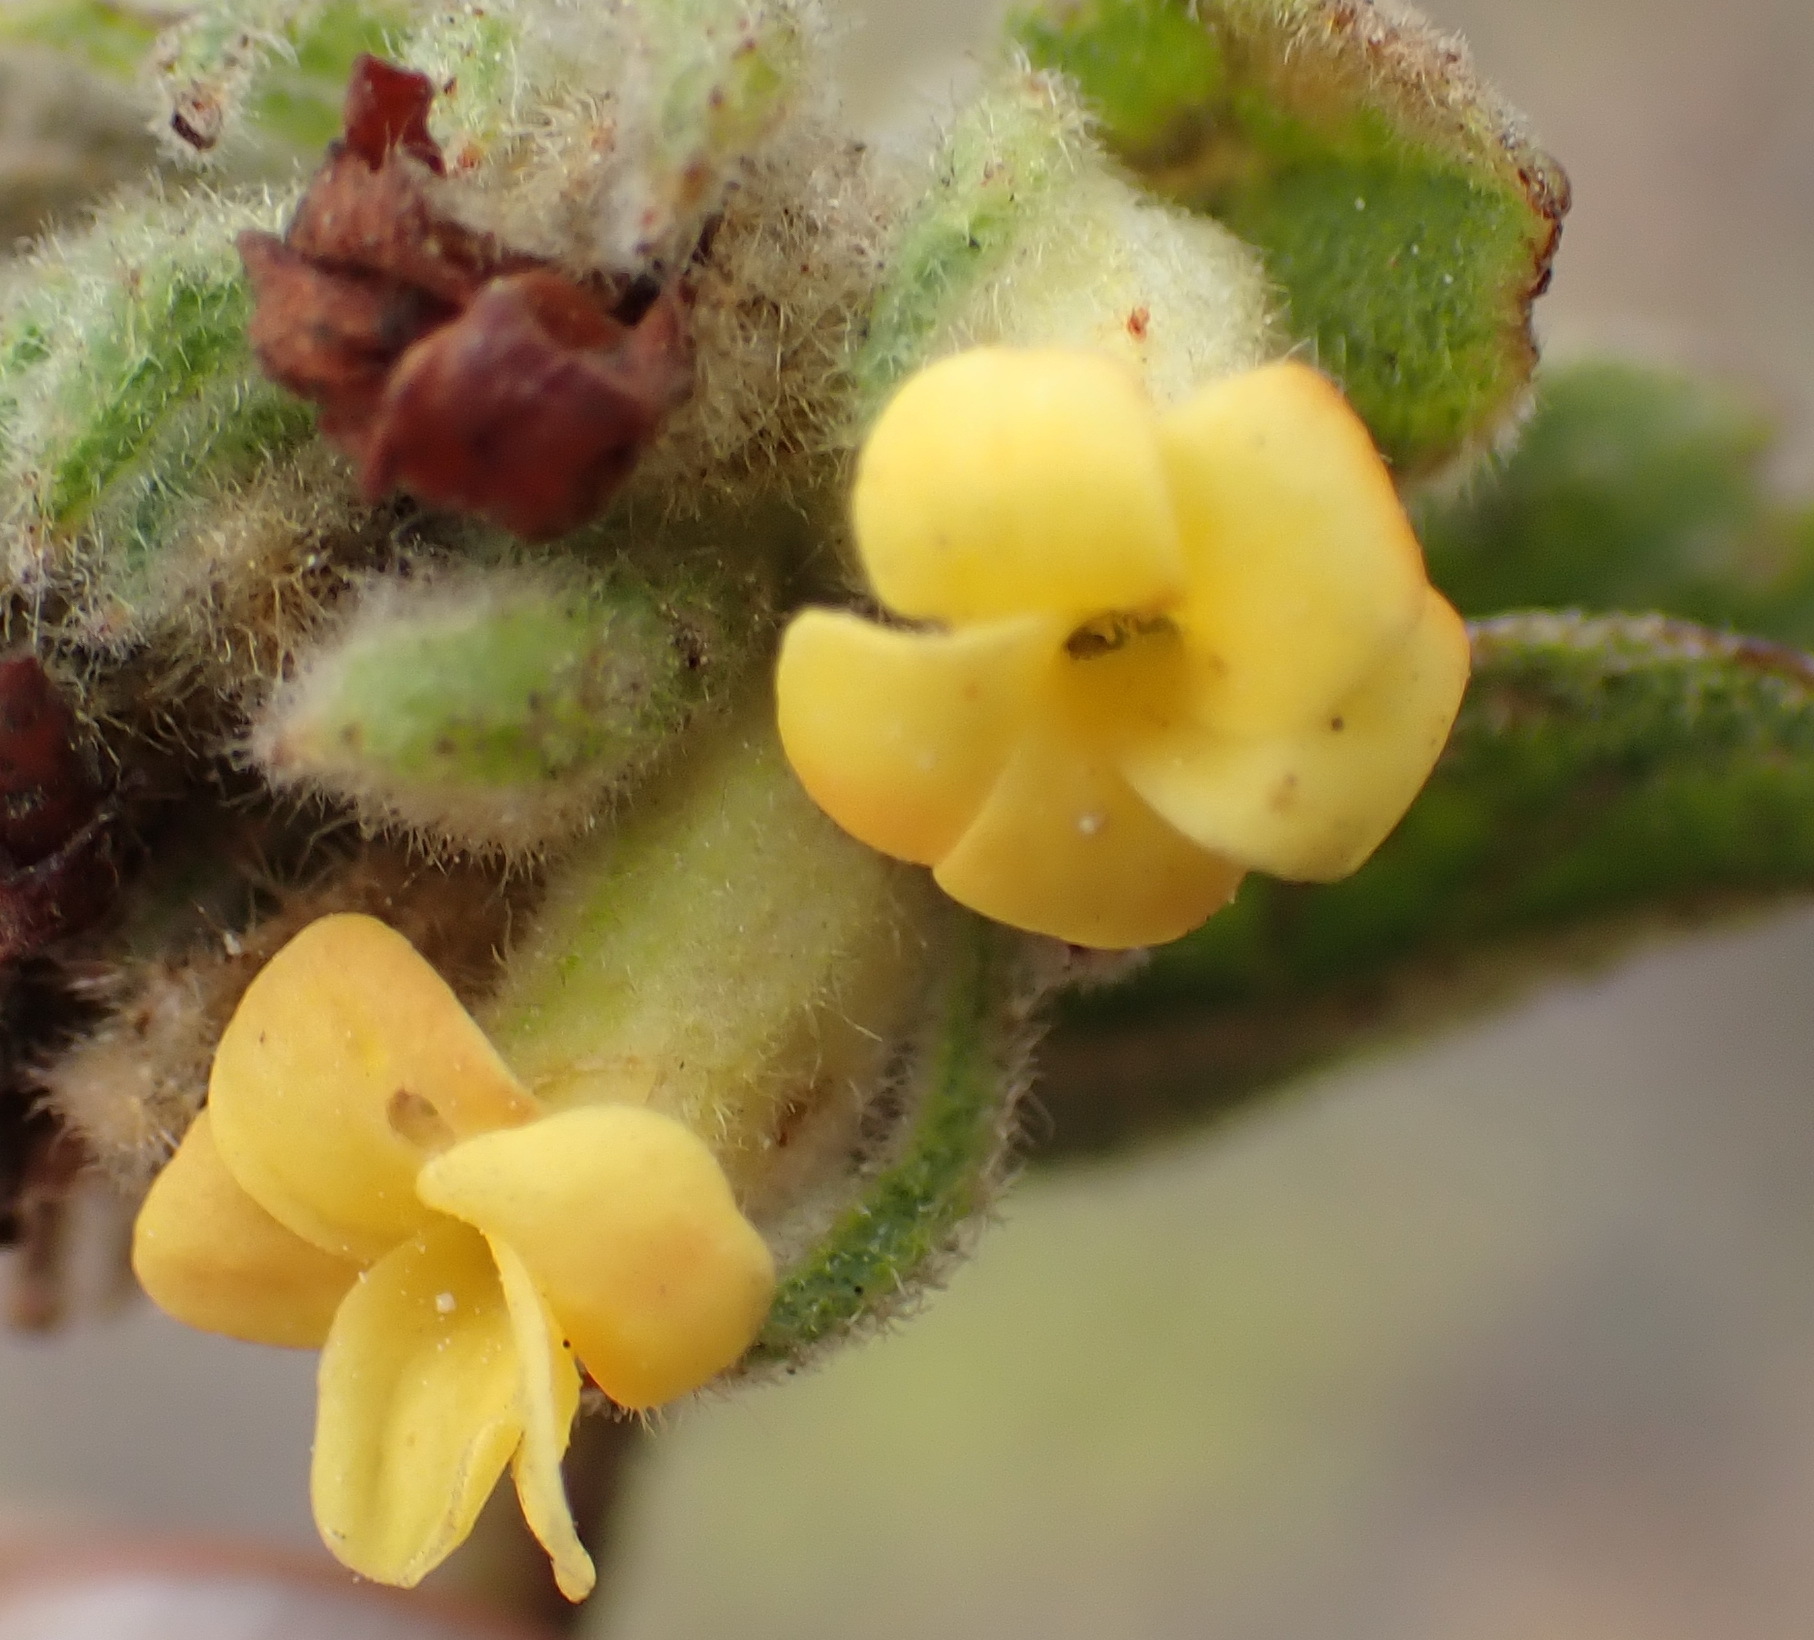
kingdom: Plantae
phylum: Tracheophyta
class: Magnoliopsida
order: Malvales
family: Malvaceae
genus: Hermannia
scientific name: Hermannia salviifolia
